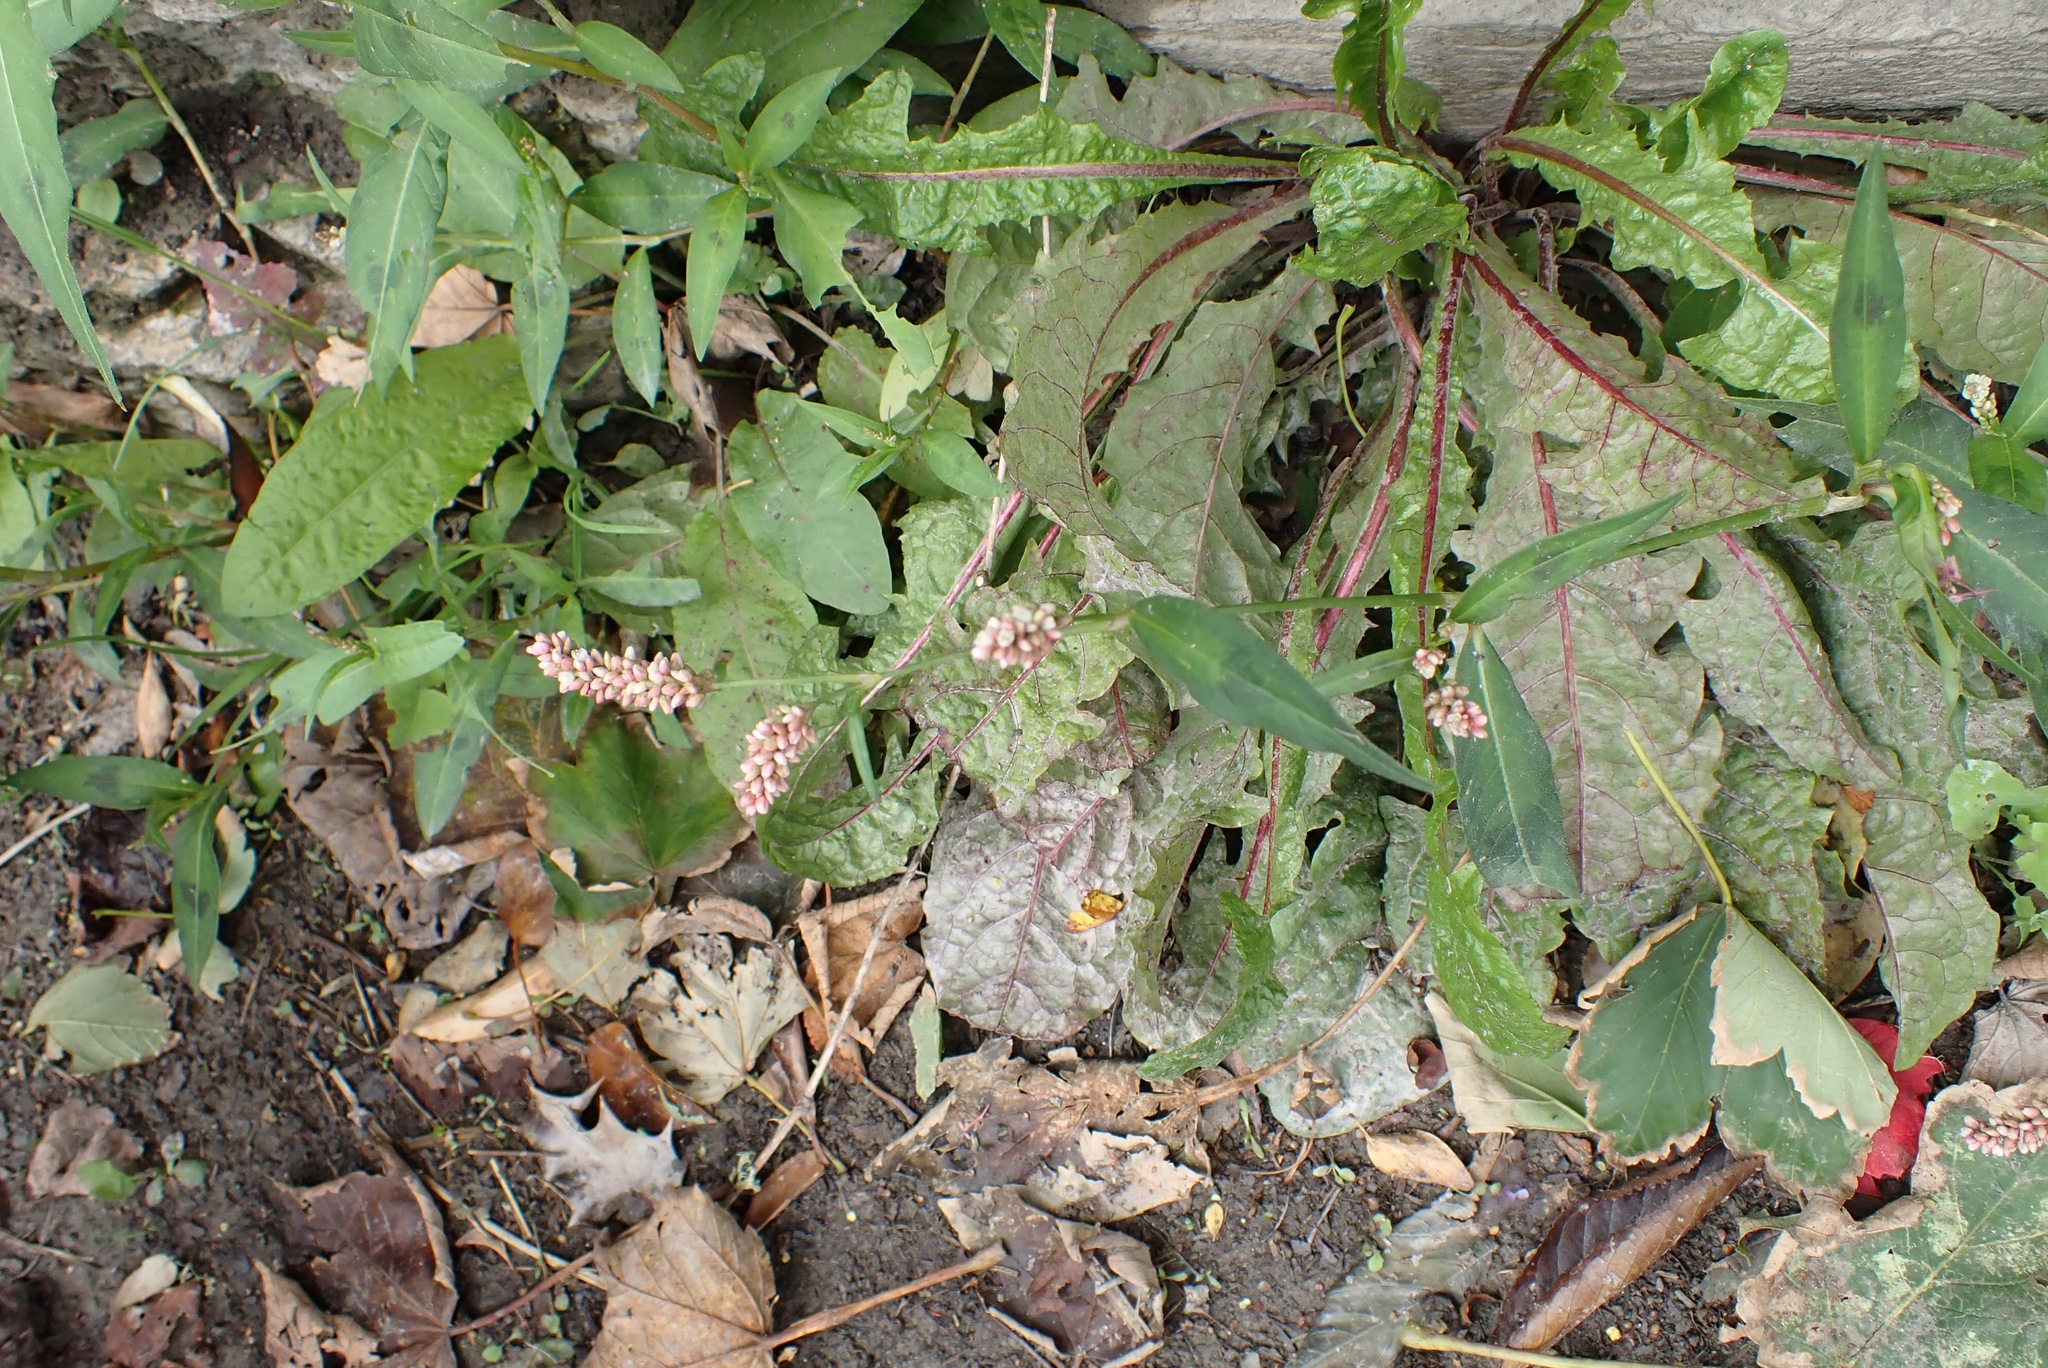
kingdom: Plantae
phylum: Tracheophyta
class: Magnoliopsida
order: Caryophyllales
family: Polygonaceae
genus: Persicaria
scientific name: Persicaria maculosa
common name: Redshank
